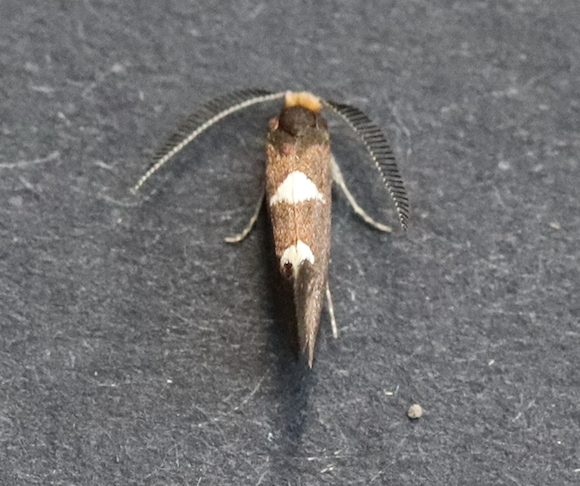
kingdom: Animalia
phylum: Arthropoda
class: Insecta
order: Lepidoptera
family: Incurvariidae
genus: Incurvaria
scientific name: Incurvaria masculella
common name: Feathered leaf-cutter
